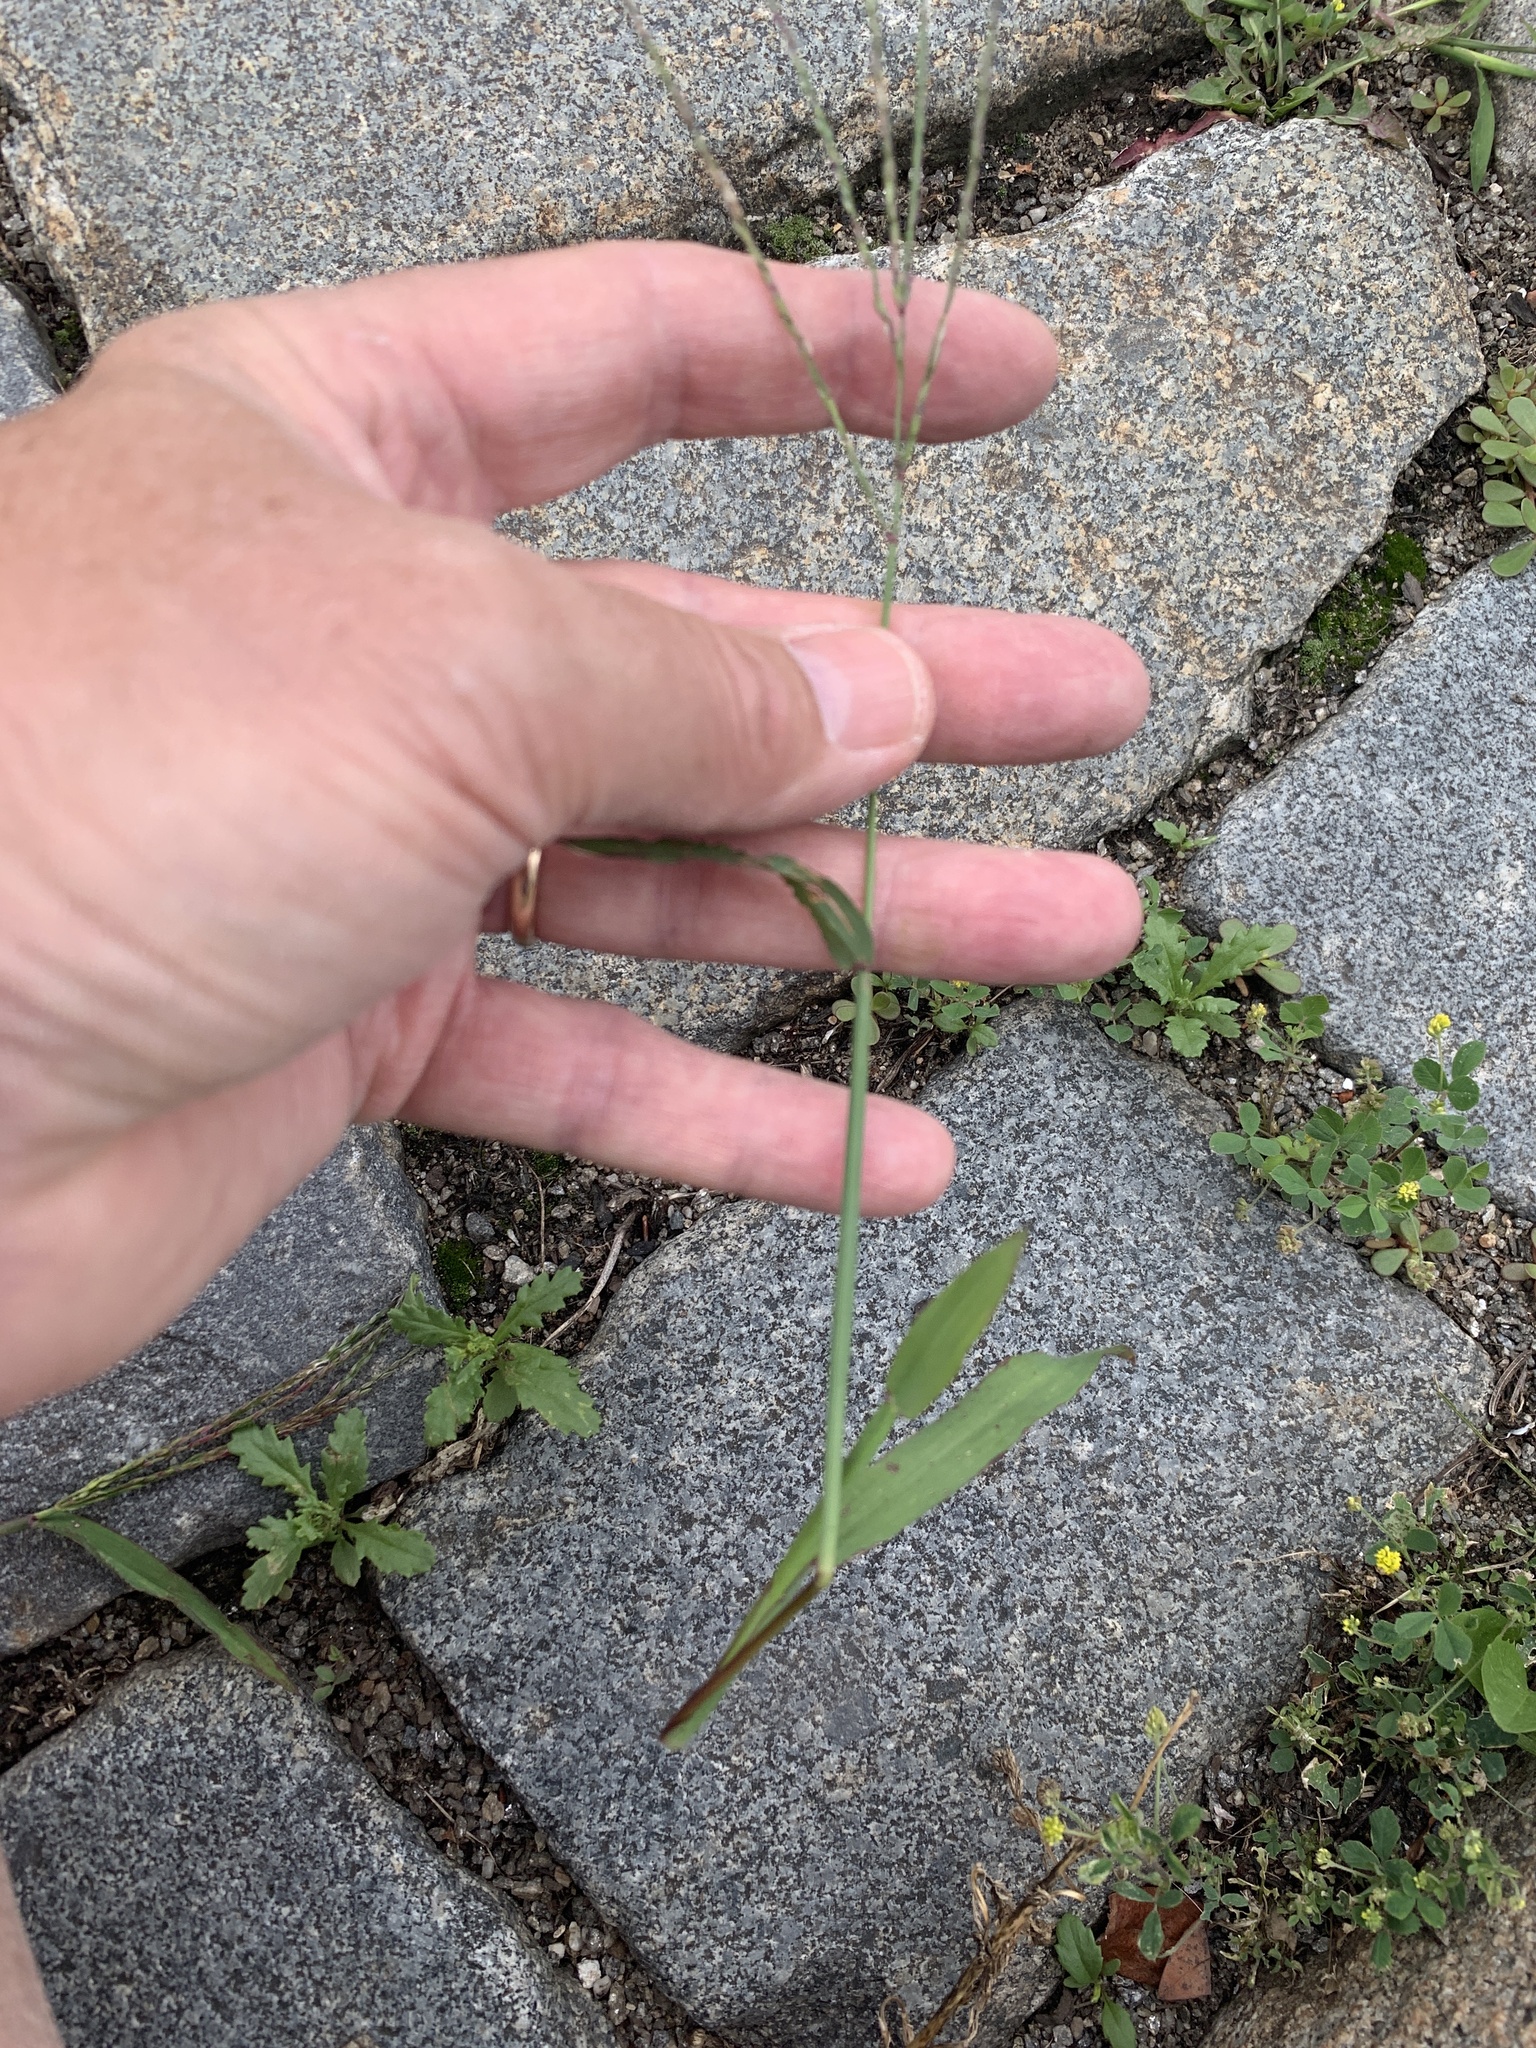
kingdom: Plantae
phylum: Tracheophyta
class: Liliopsida
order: Poales
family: Poaceae
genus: Digitaria
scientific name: Digitaria sanguinalis
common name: Hairy crabgrass
